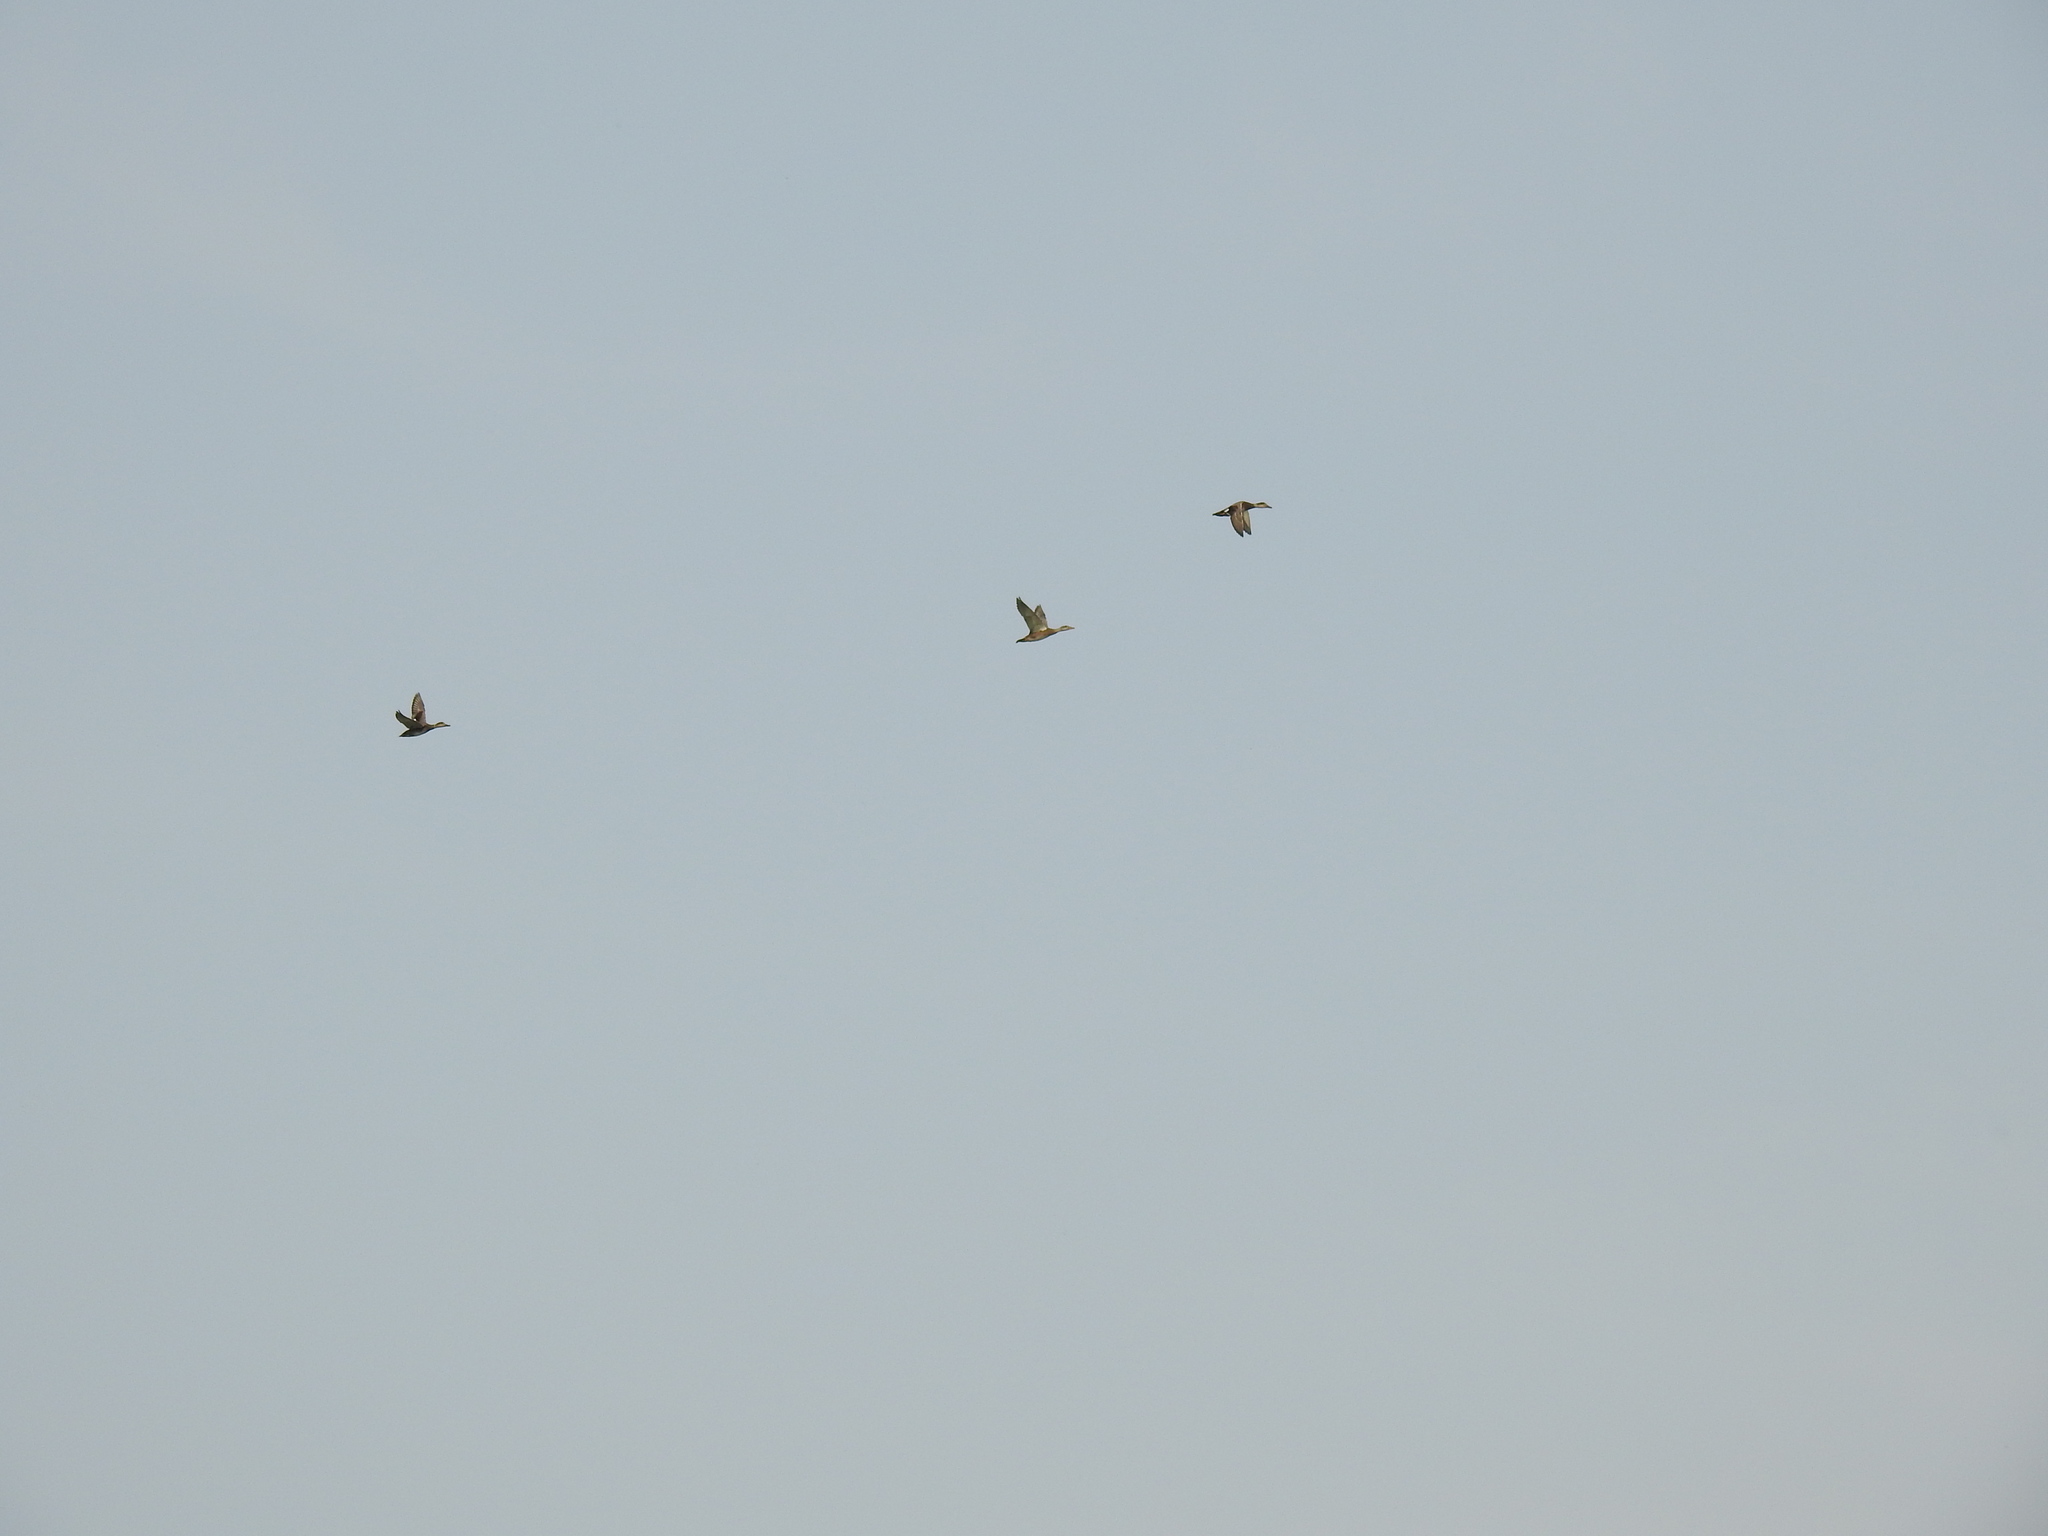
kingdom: Animalia
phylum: Chordata
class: Aves
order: Anseriformes
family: Anatidae
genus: Mareca
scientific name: Mareca strepera
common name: Gadwall
